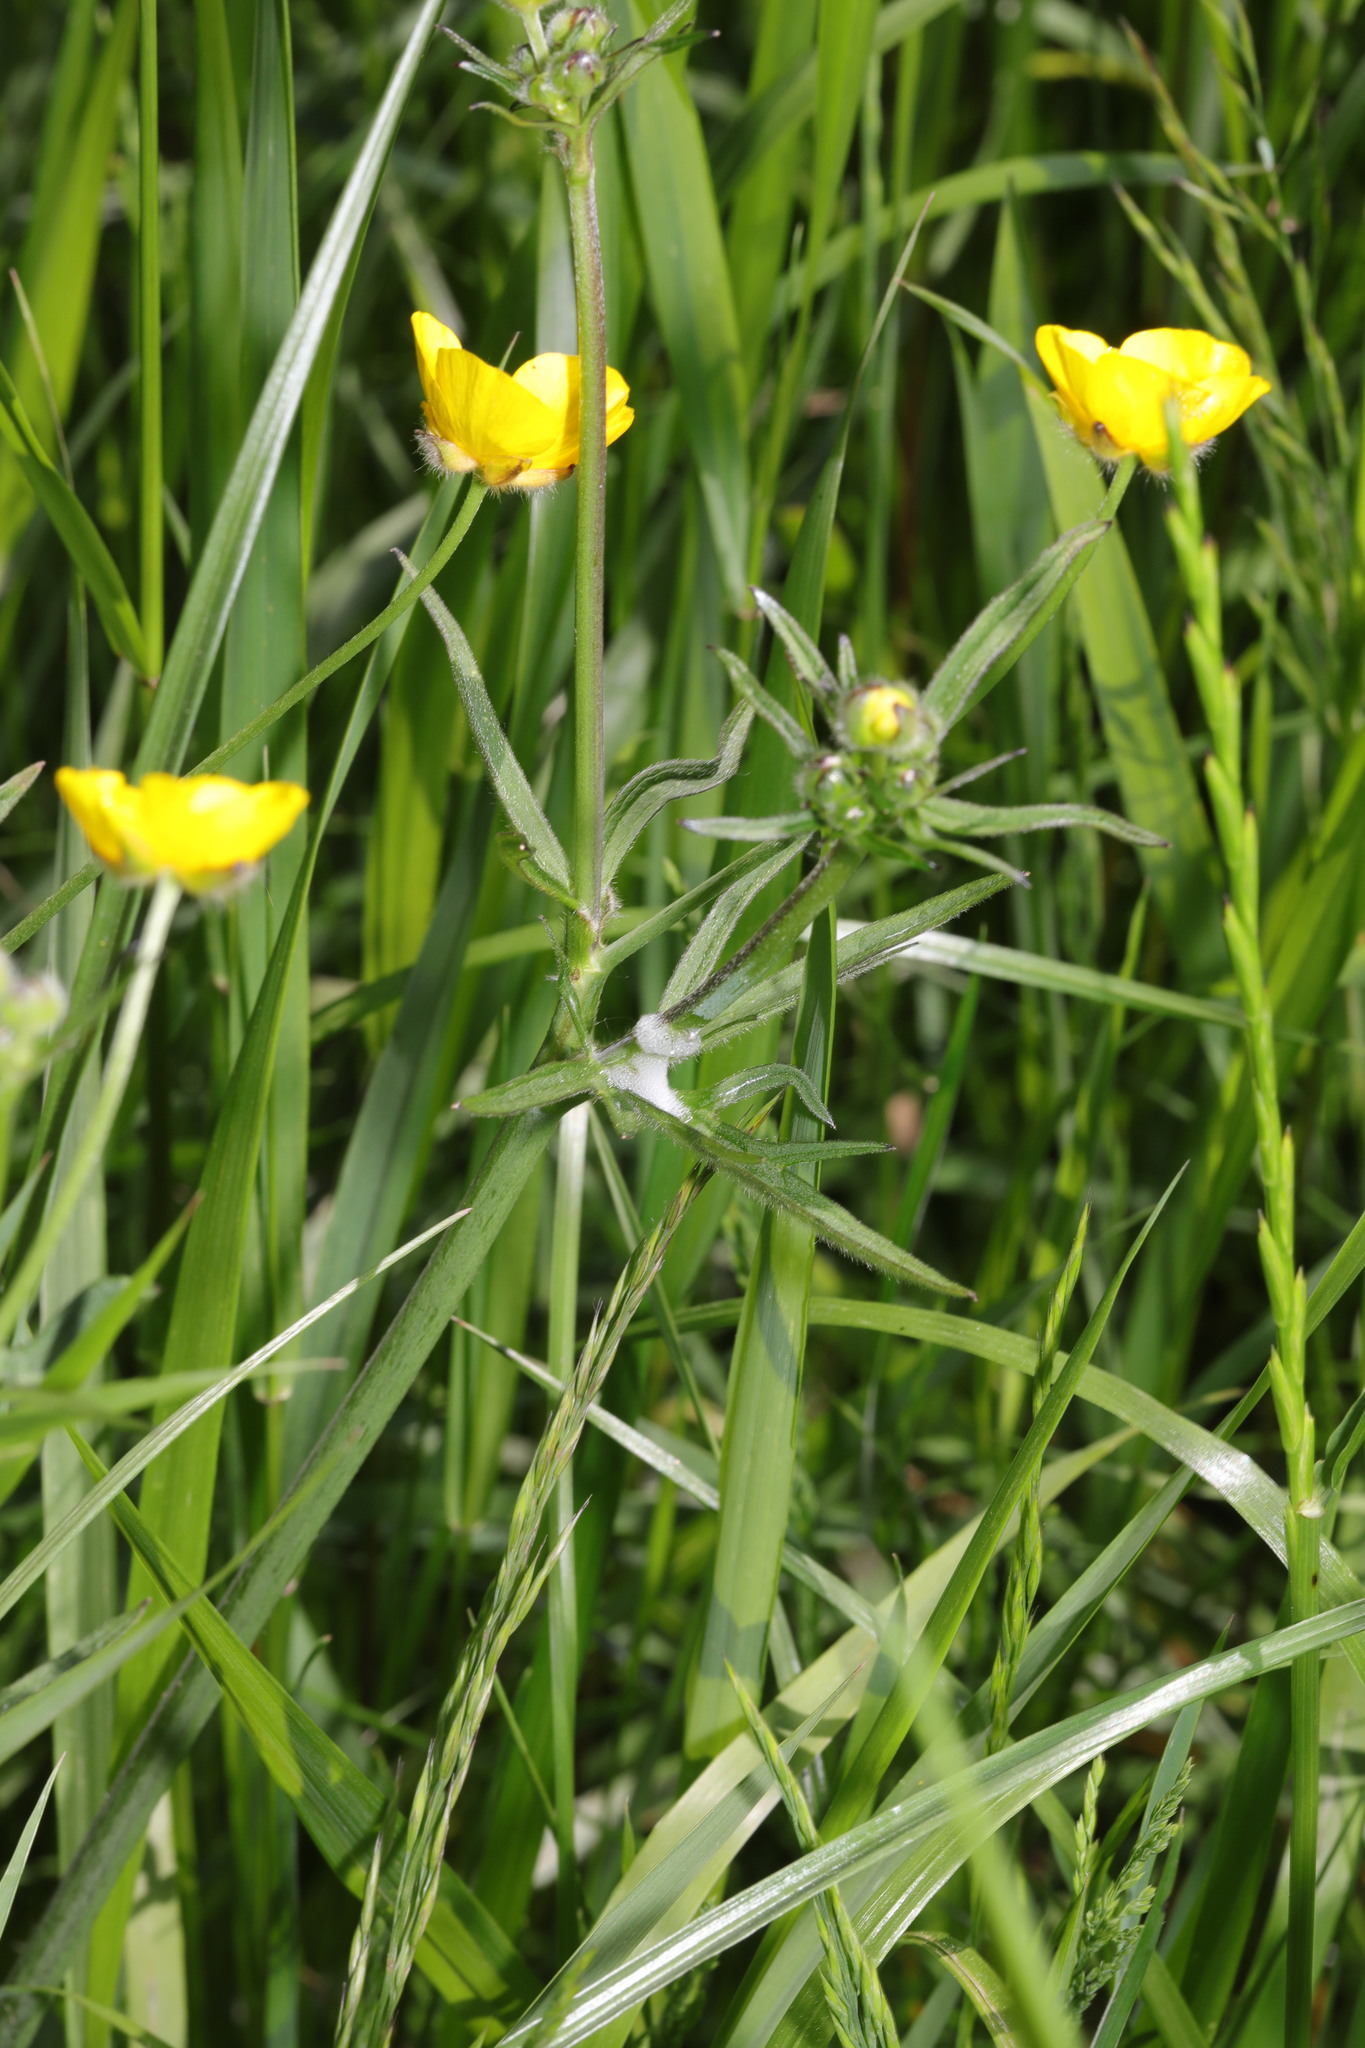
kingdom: Plantae
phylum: Tracheophyta
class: Magnoliopsida
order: Ranunculales
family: Ranunculaceae
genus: Ranunculus
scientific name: Ranunculus acris
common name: Meadow buttercup
